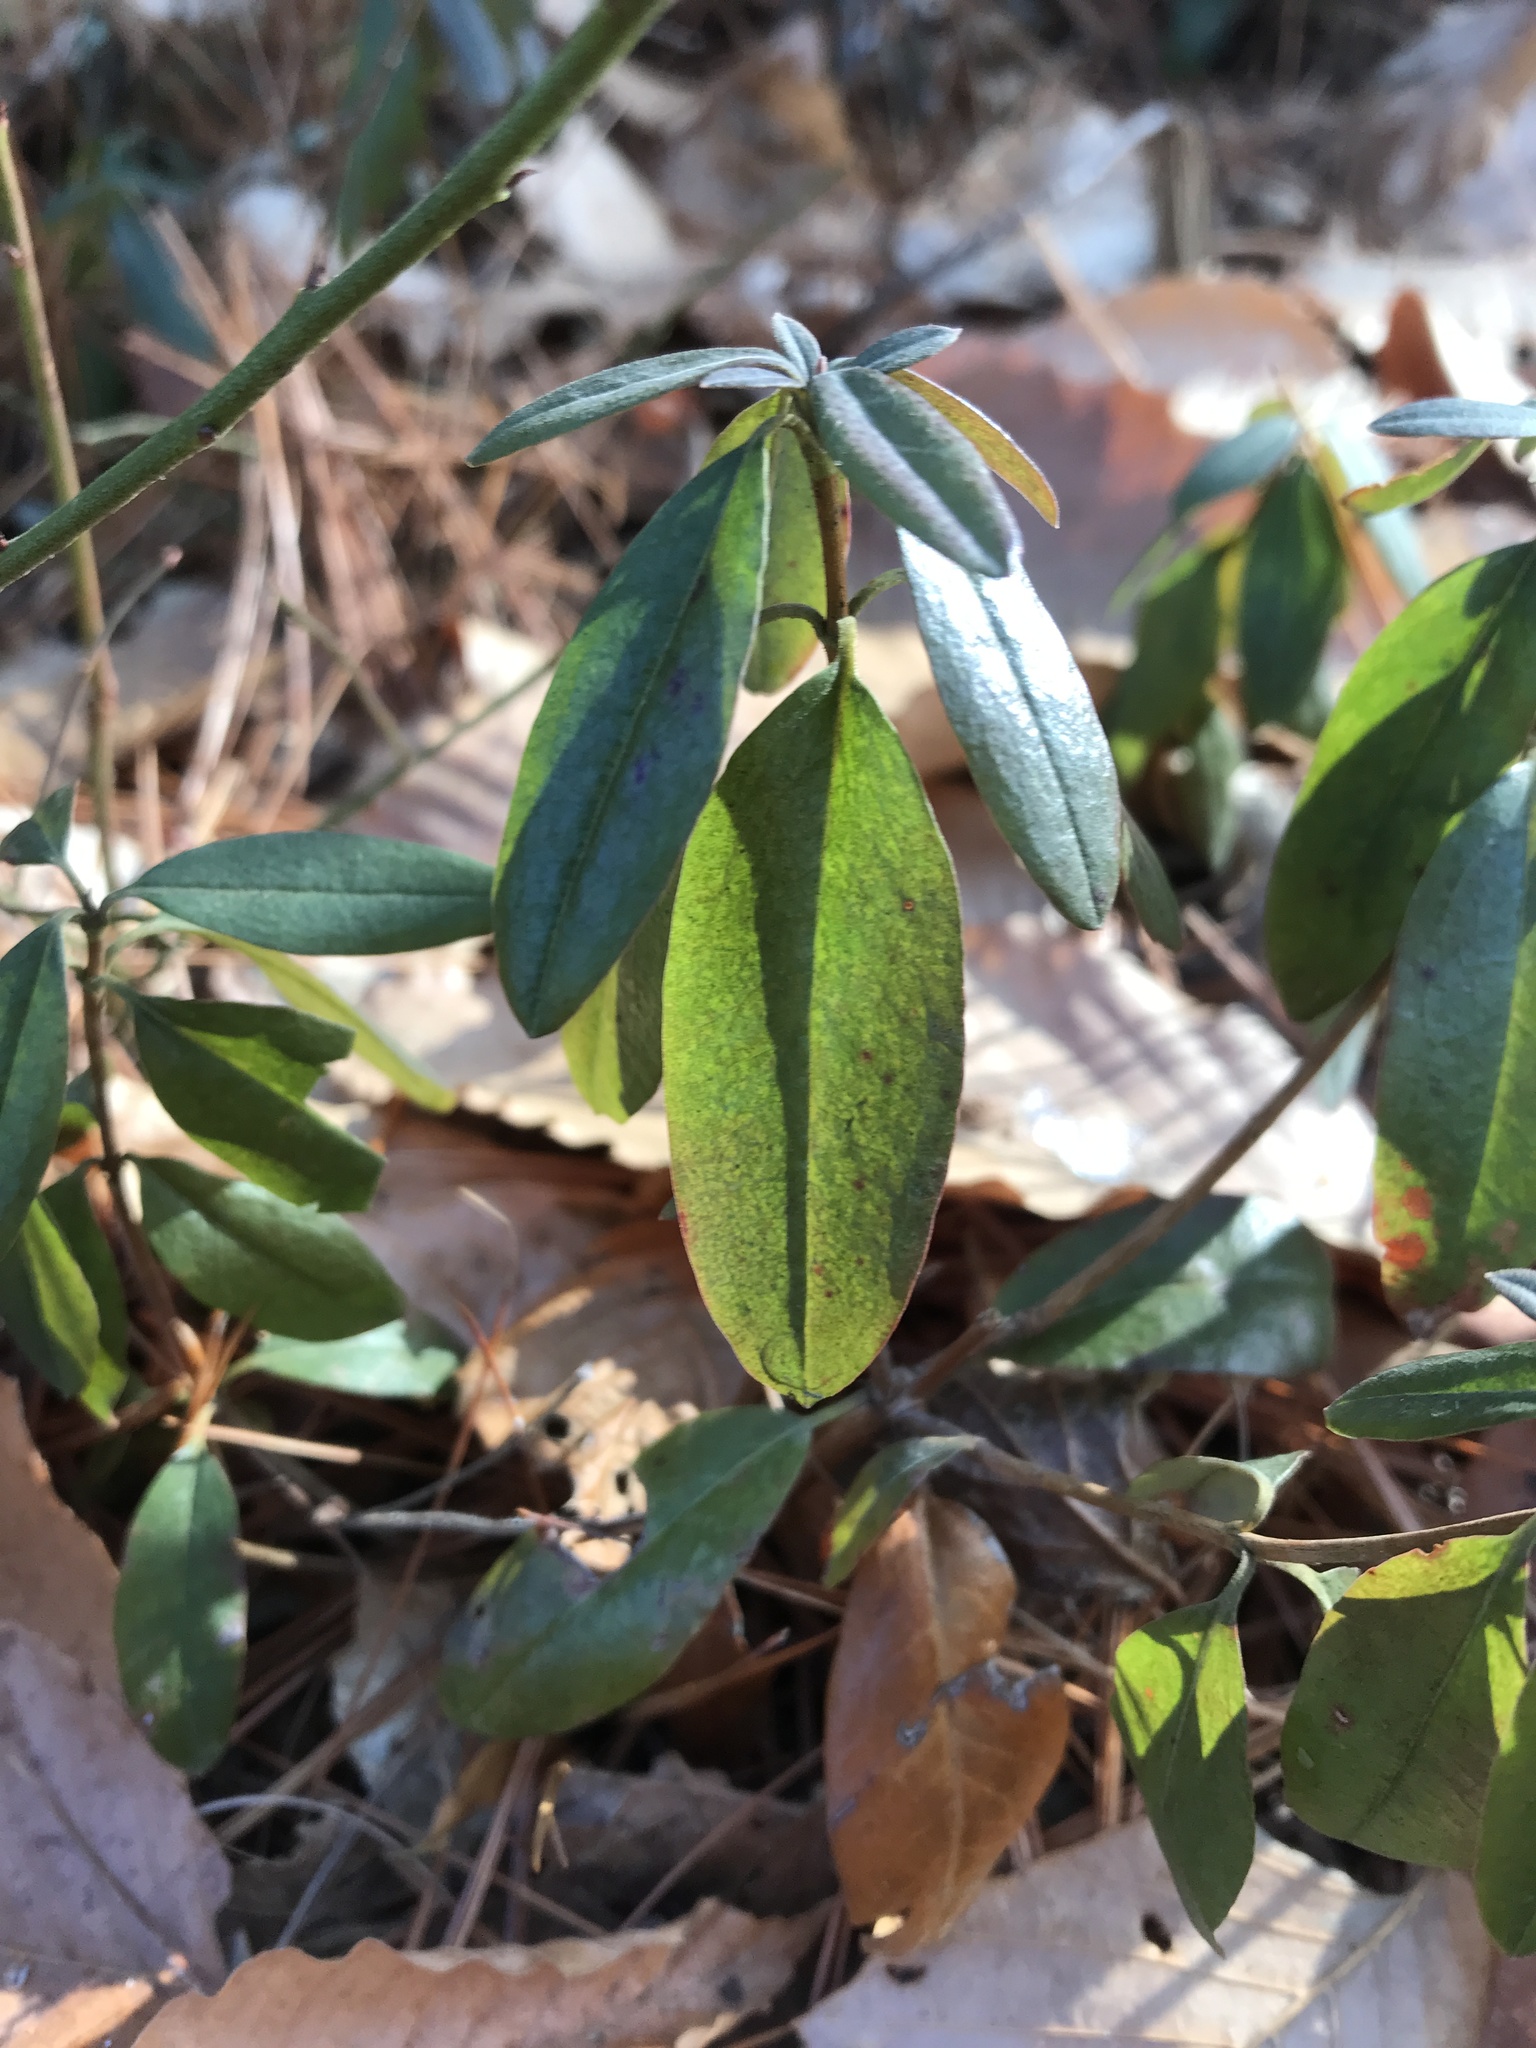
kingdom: Plantae
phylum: Tracheophyta
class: Magnoliopsida
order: Ericales
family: Ericaceae
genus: Kalmia
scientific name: Kalmia angustifolia
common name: Sheep-laurel
